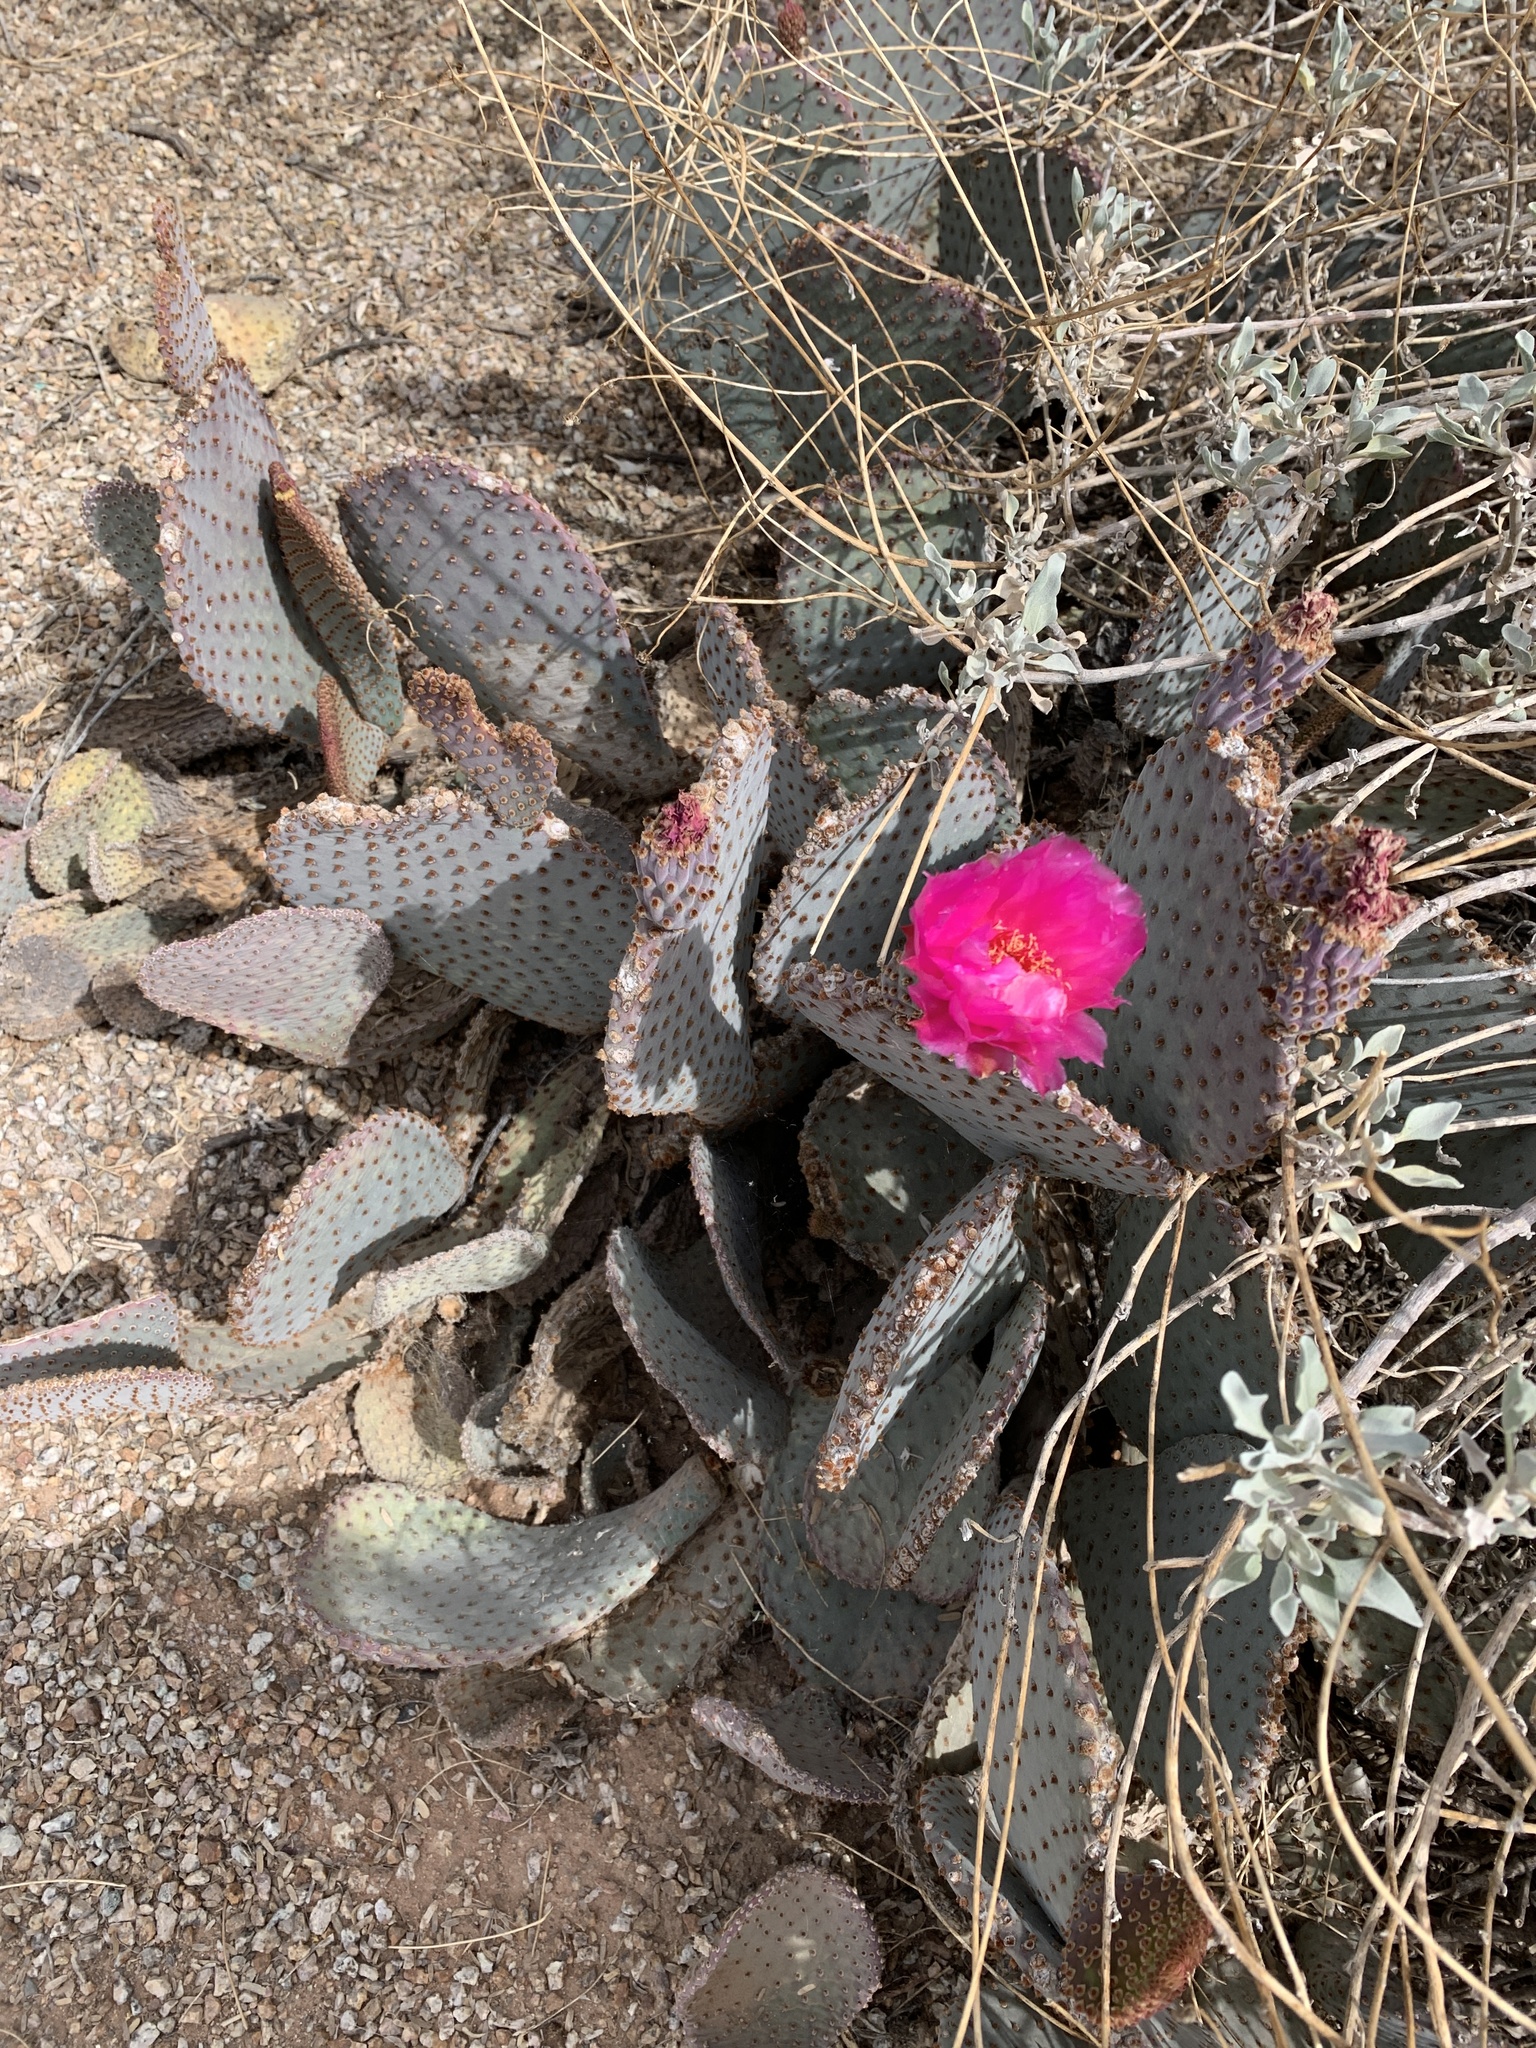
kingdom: Plantae
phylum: Tracheophyta
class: Magnoliopsida
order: Caryophyllales
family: Cactaceae
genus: Opuntia
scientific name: Opuntia basilaris
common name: Beavertail prickly-pear
